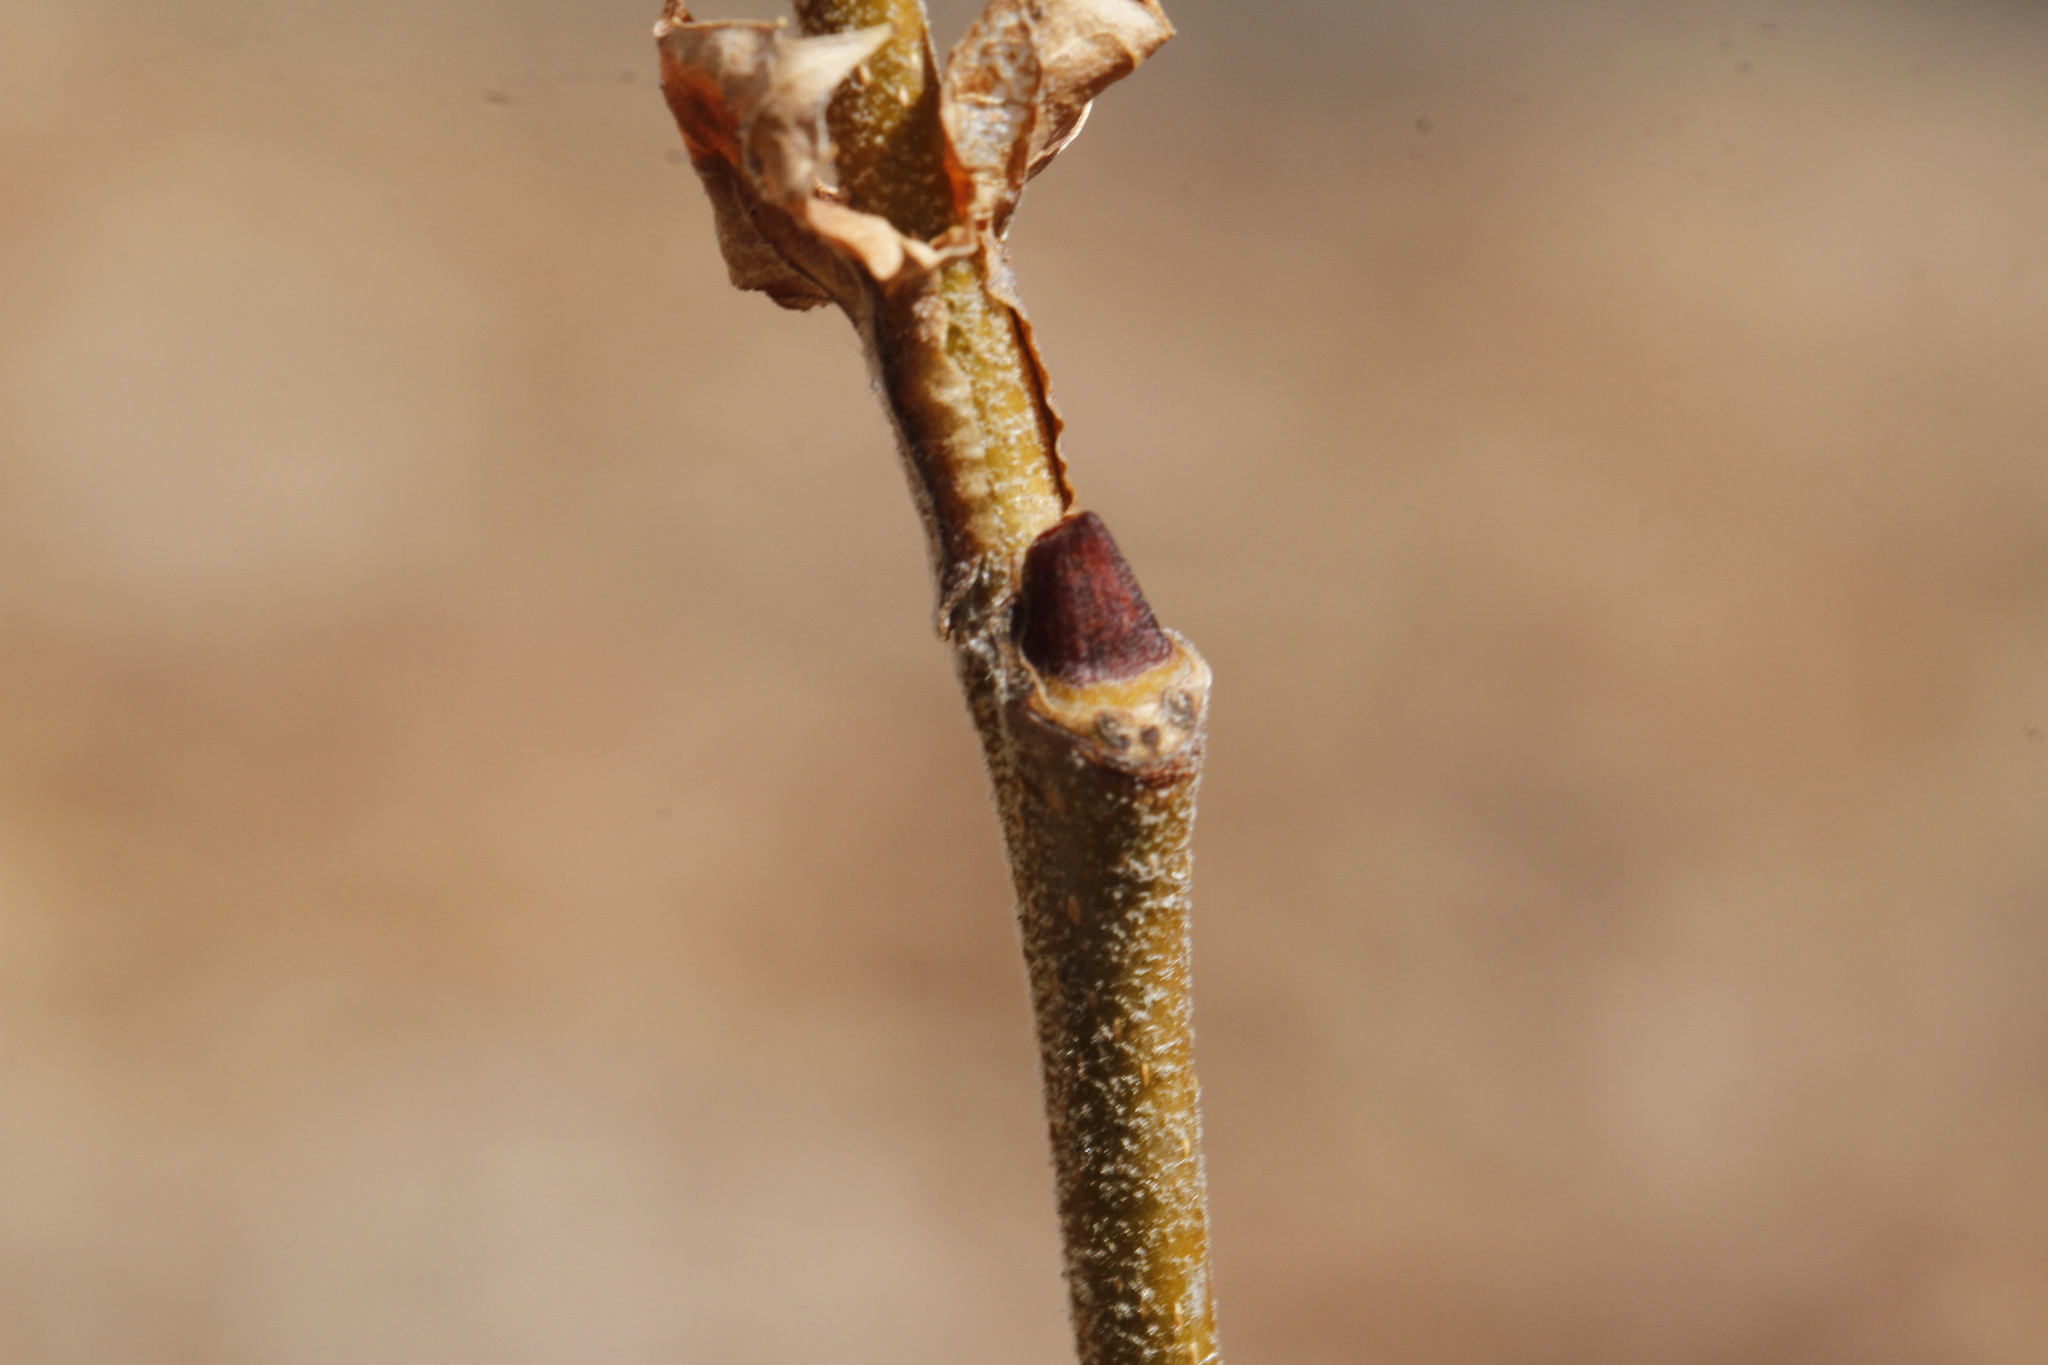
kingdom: Plantae
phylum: Tracheophyta
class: Magnoliopsida
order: Proteales
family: Platanaceae
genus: Platanus
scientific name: Platanus occidentalis
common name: American sycamore
